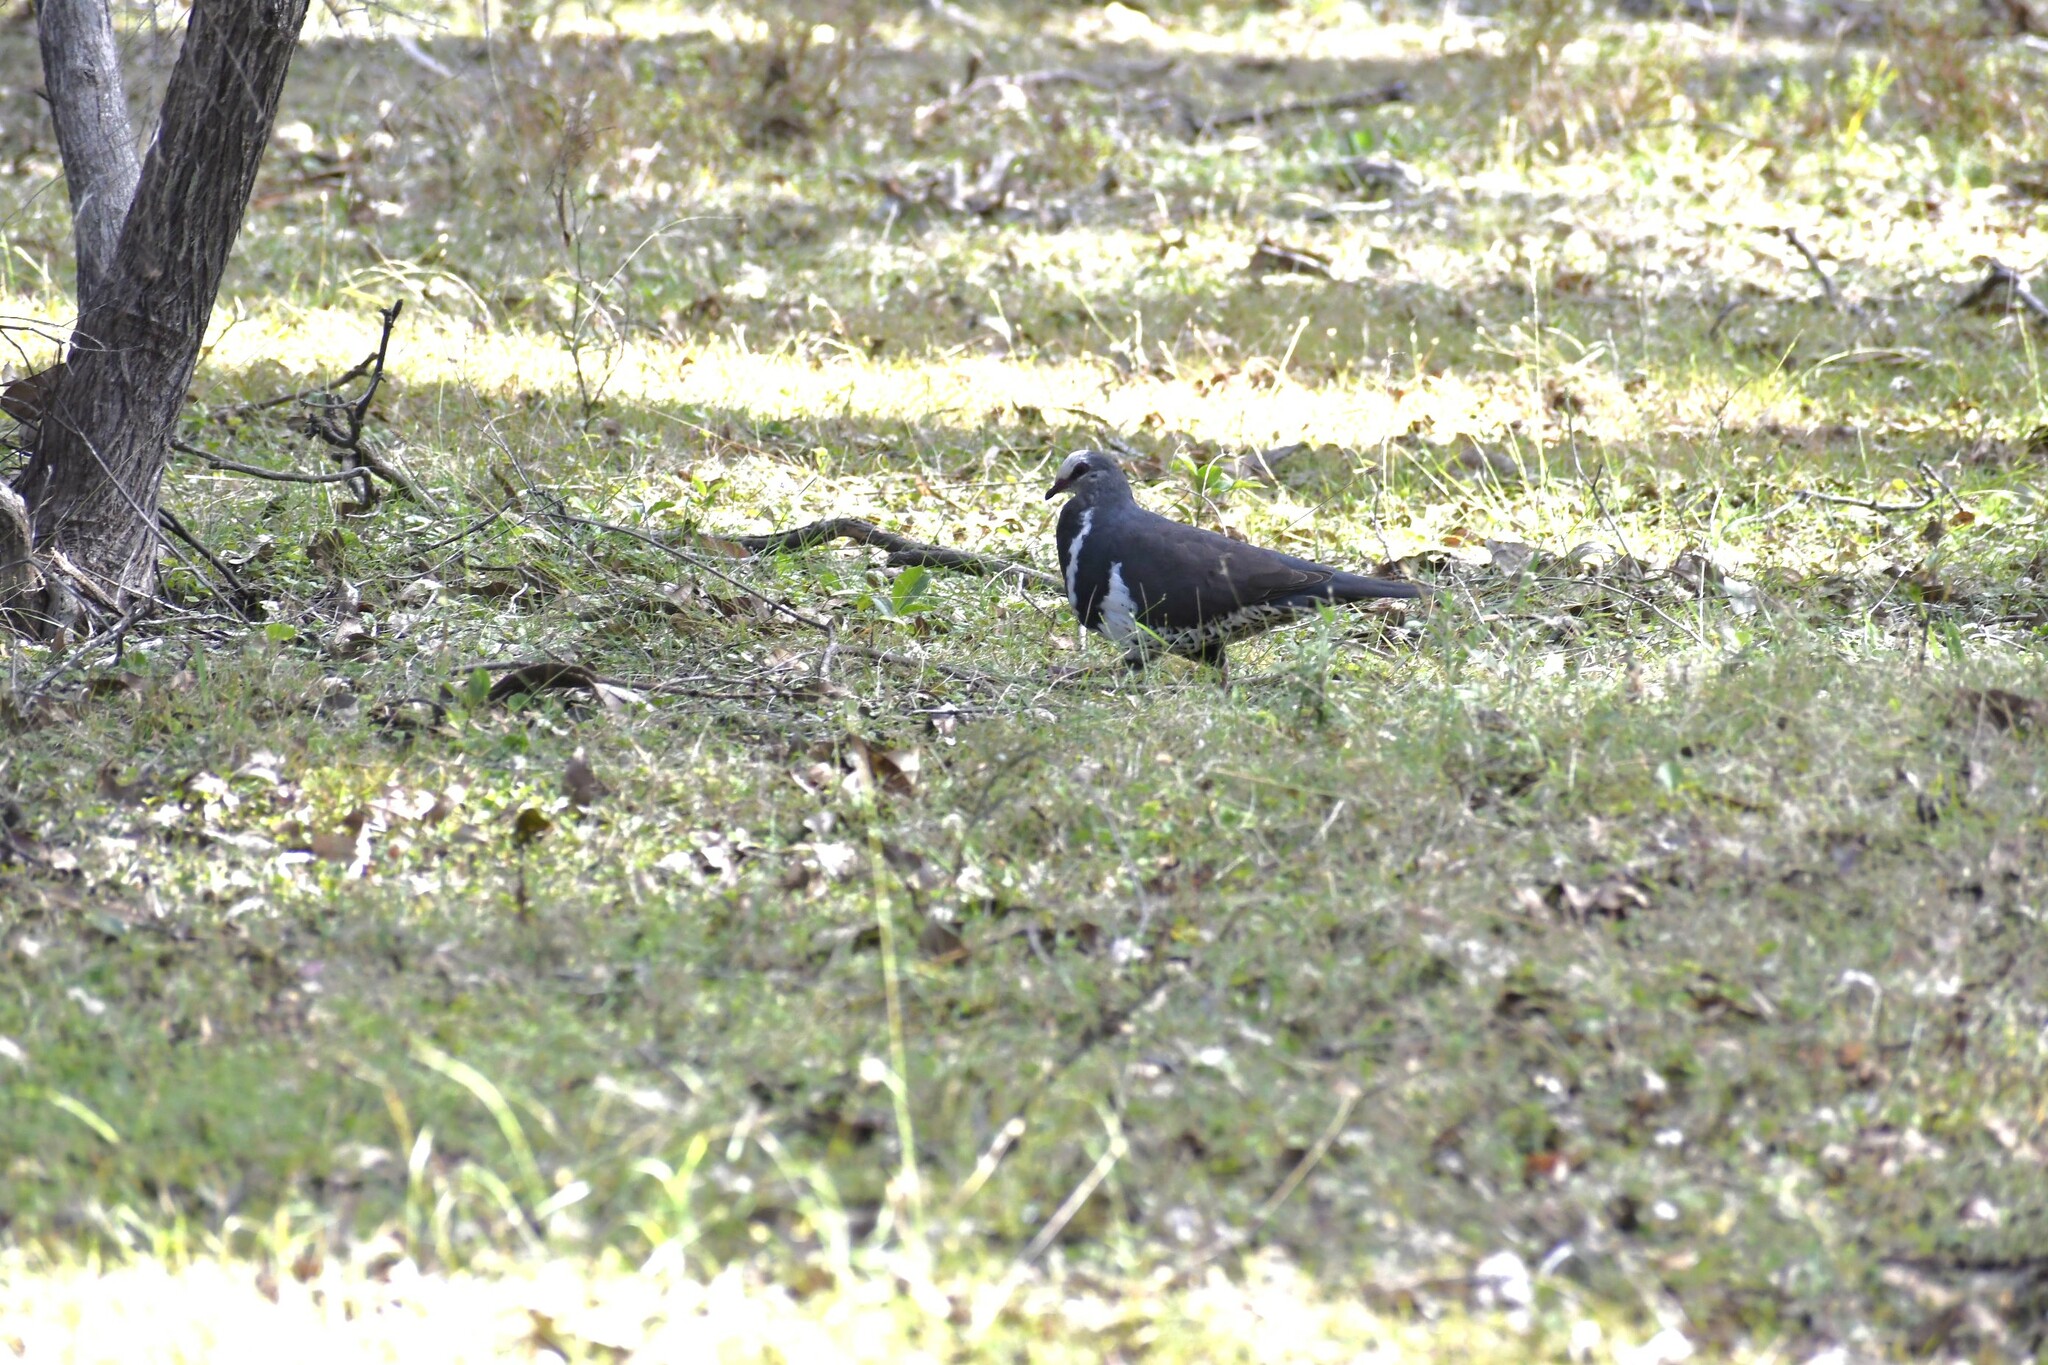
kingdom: Animalia
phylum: Chordata
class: Aves
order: Columbiformes
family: Columbidae
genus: Leucosarcia
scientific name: Leucosarcia melanoleuca
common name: Wonga pigeon
